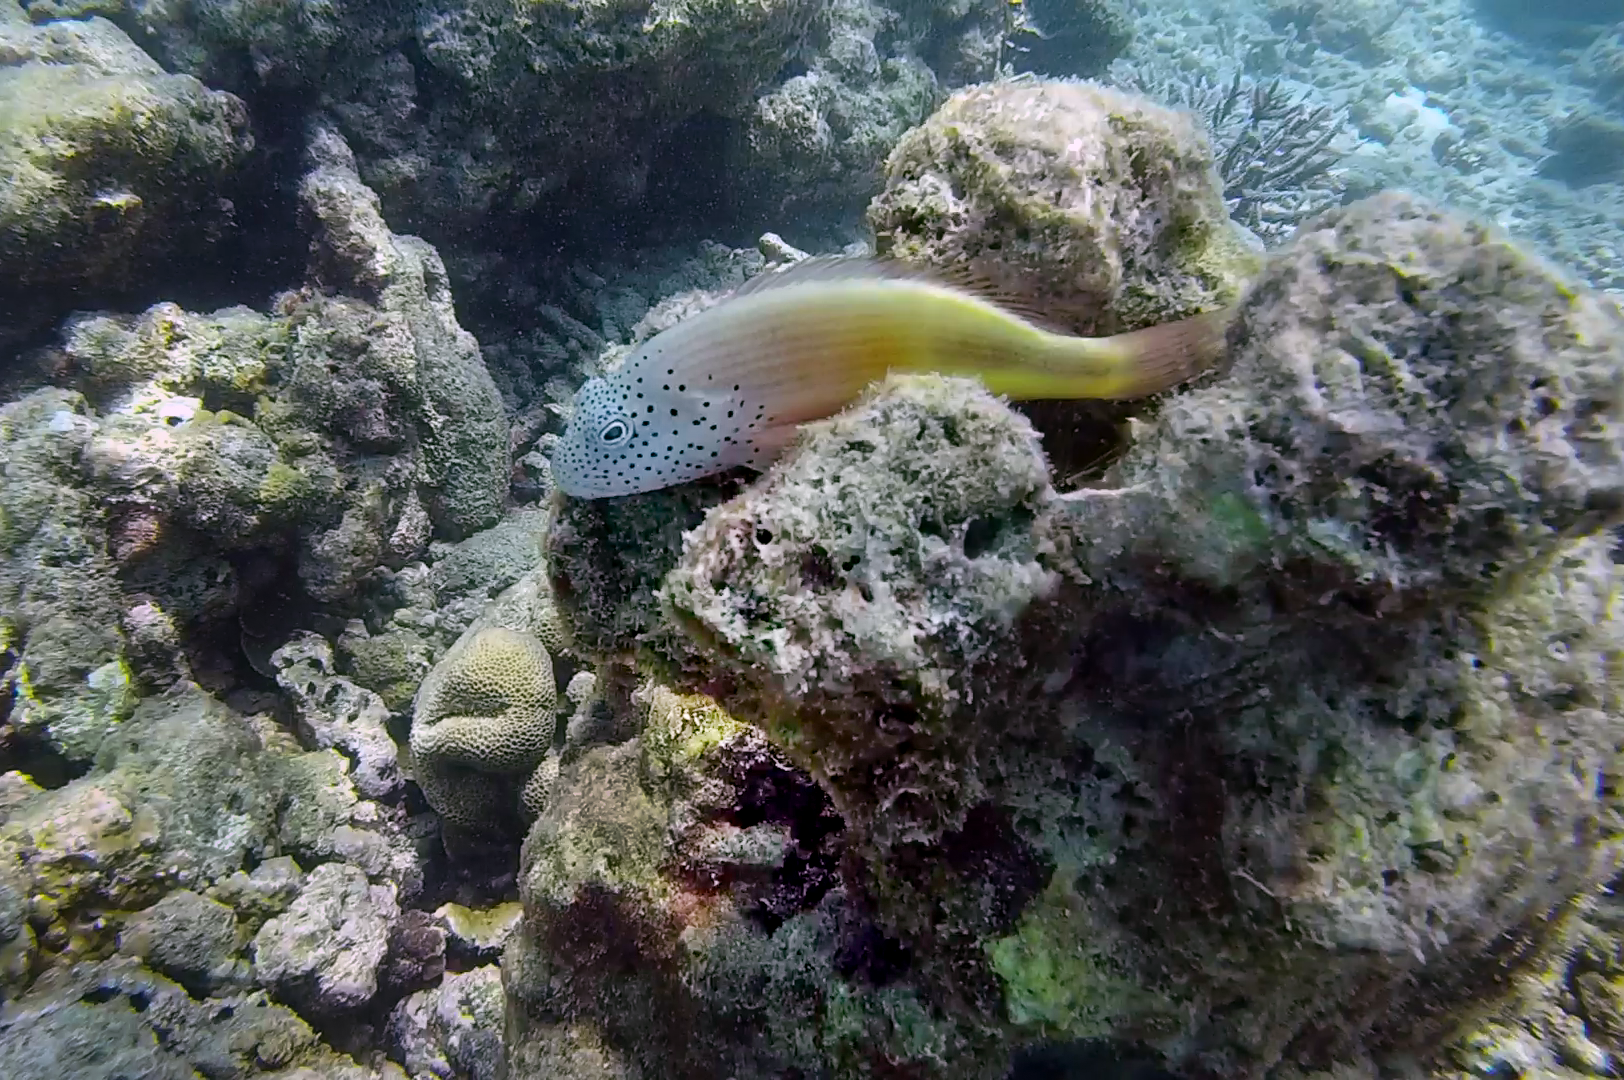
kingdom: Animalia
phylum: Chordata
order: Perciformes
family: Cirrhitidae
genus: Paracirrhites
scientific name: Paracirrhites forsteri
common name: Freckled hawkfish
